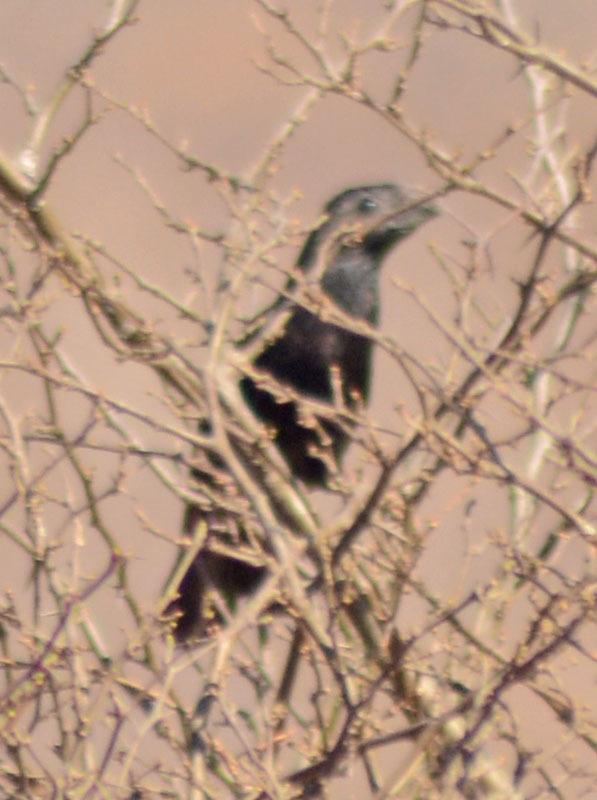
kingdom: Animalia
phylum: Chordata
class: Aves
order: Cuculiformes
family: Cuculidae
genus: Crotophaga
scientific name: Crotophaga sulcirostris
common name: Groove-billed ani
